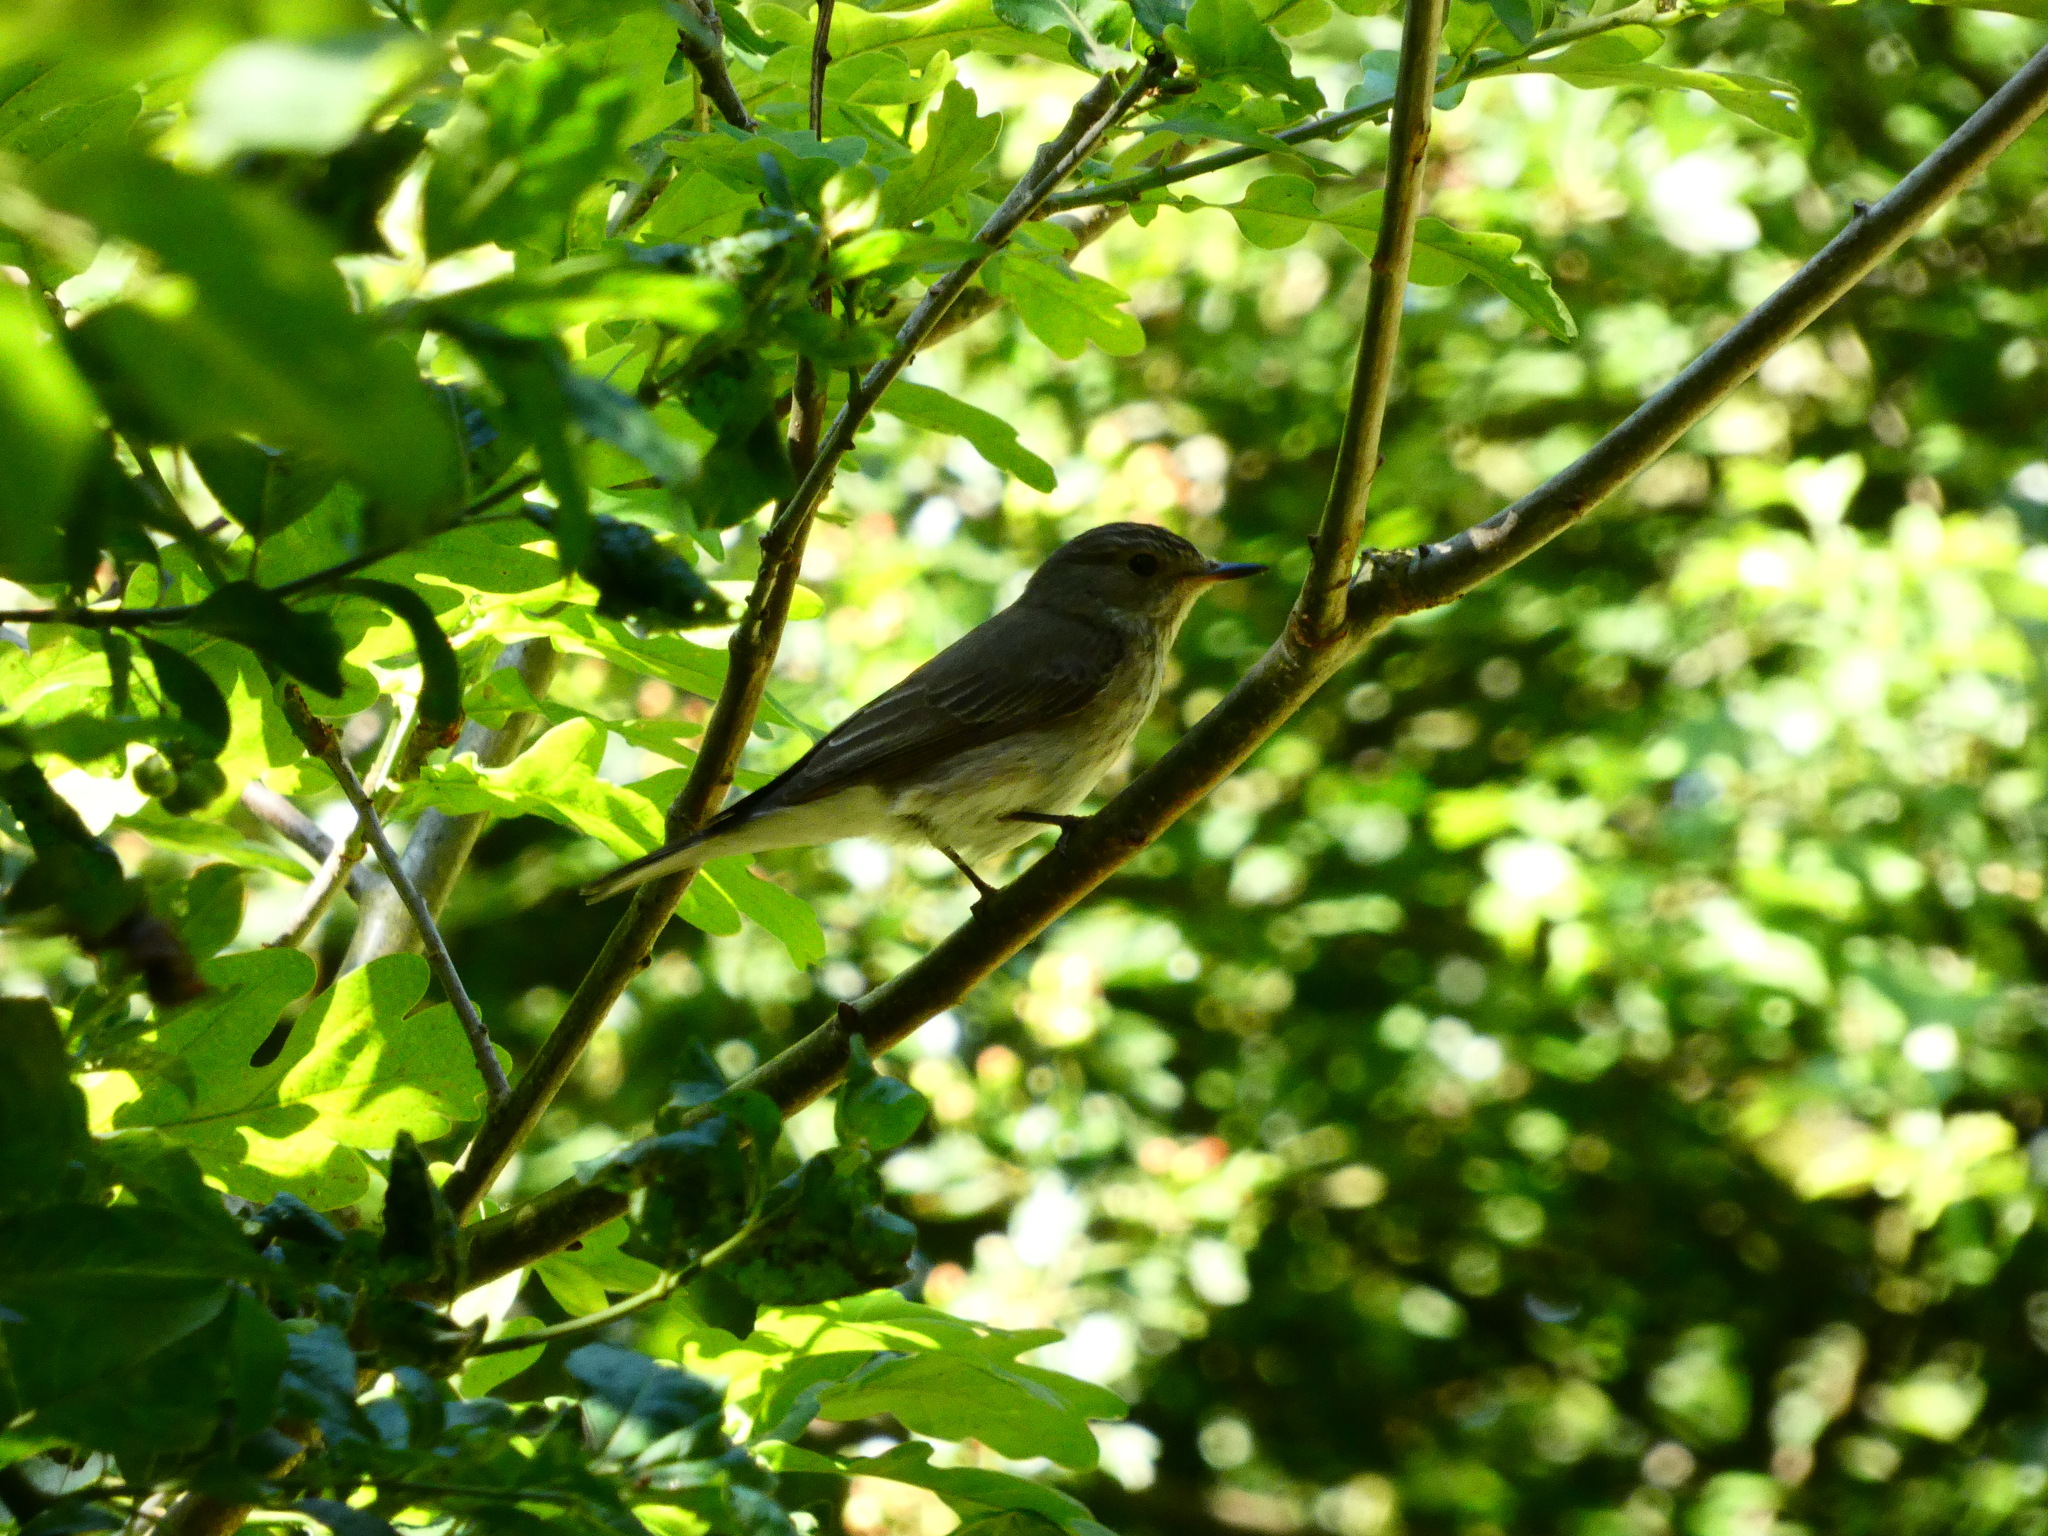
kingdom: Animalia
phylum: Chordata
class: Aves
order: Passeriformes
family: Muscicapidae
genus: Muscicapa
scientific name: Muscicapa striata
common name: Spotted flycatcher
